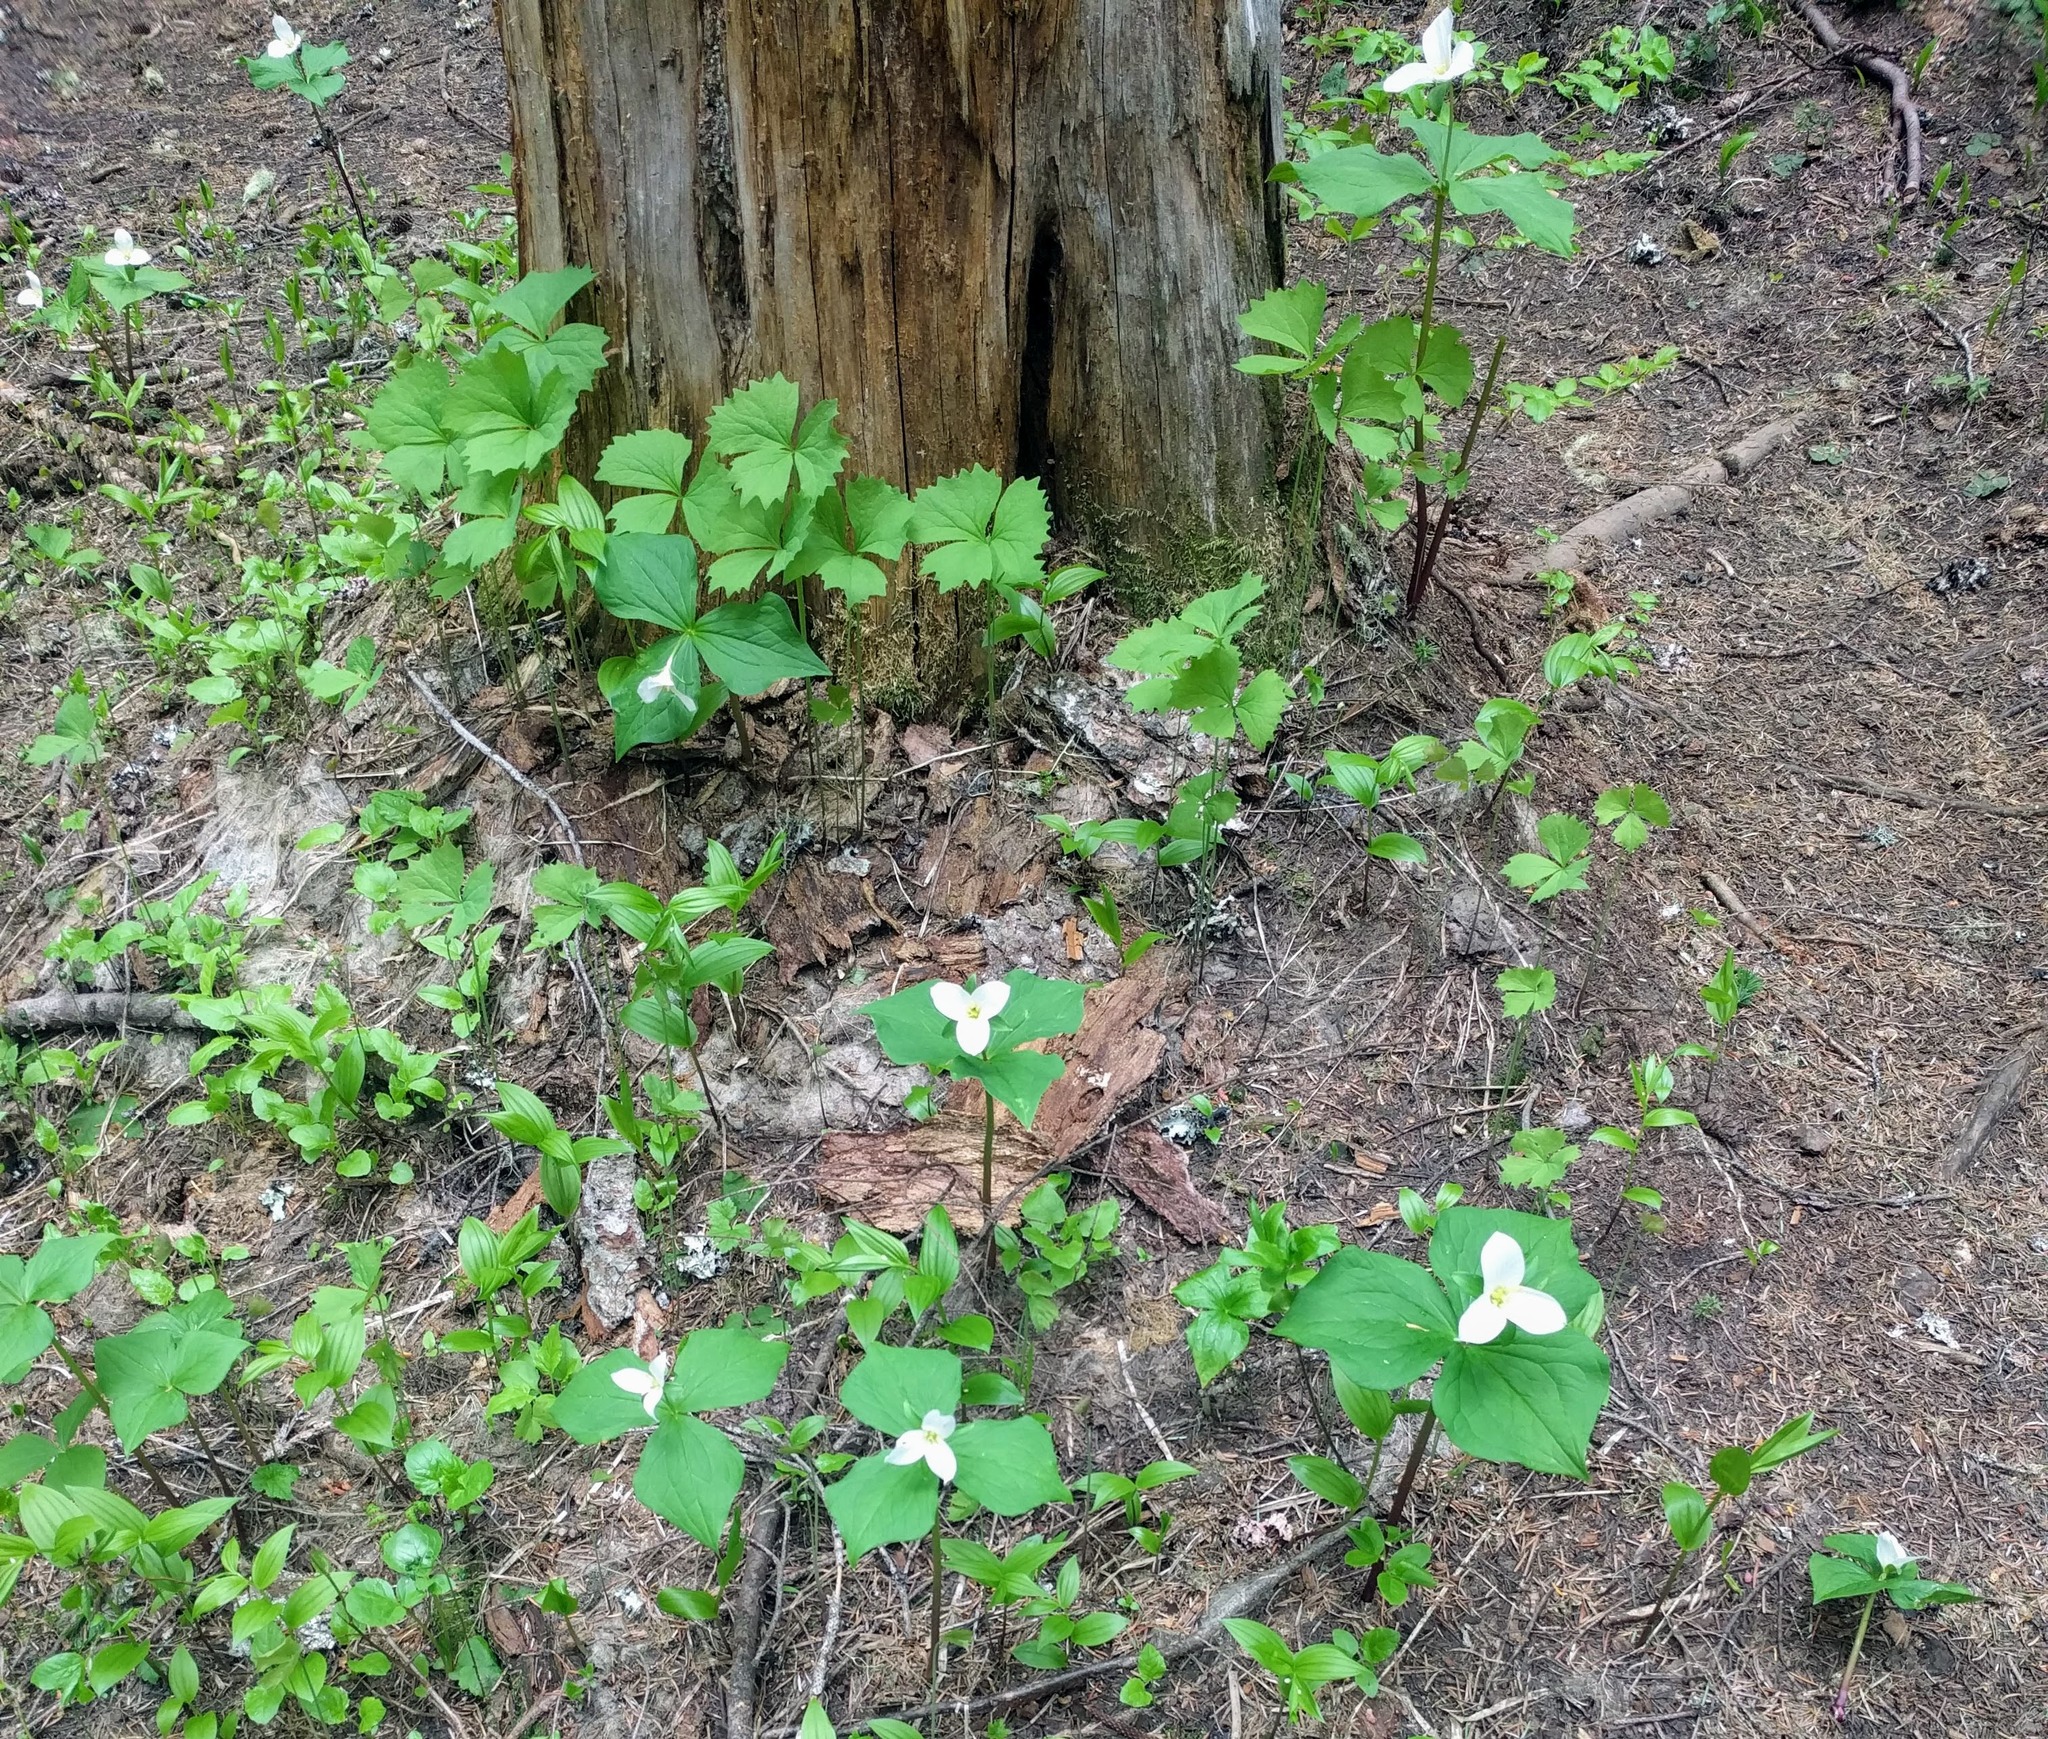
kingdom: Plantae
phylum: Tracheophyta
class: Liliopsida
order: Liliales
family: Melanthiaceae
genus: Trillium
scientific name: Trillium ovatum
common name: Pacific trillium
